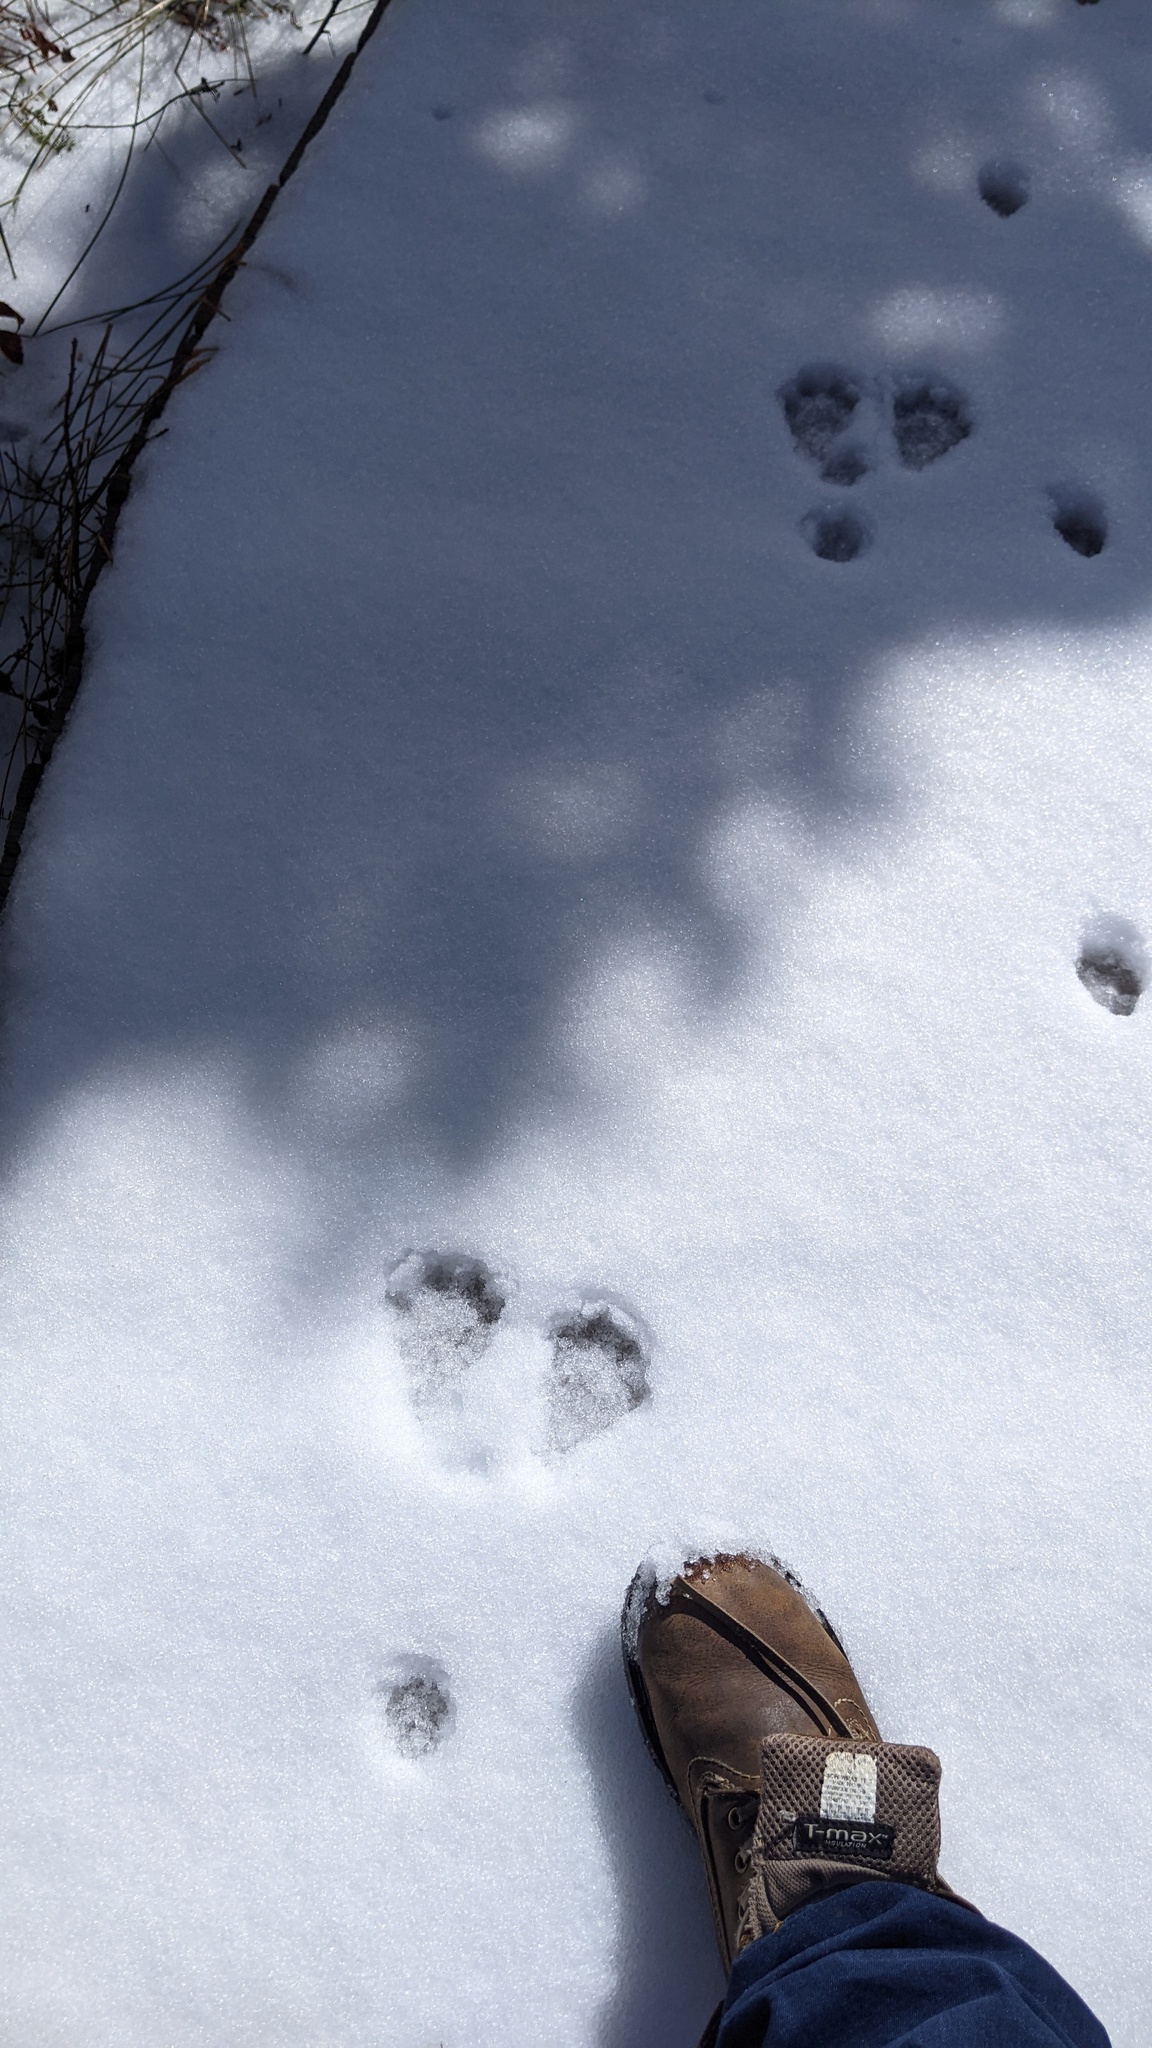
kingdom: Animalia
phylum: Chordata
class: Mammalia
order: Lagomorpha
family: Leporidae
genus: Lepus
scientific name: Lepus americanus
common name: Snowshoe hare
